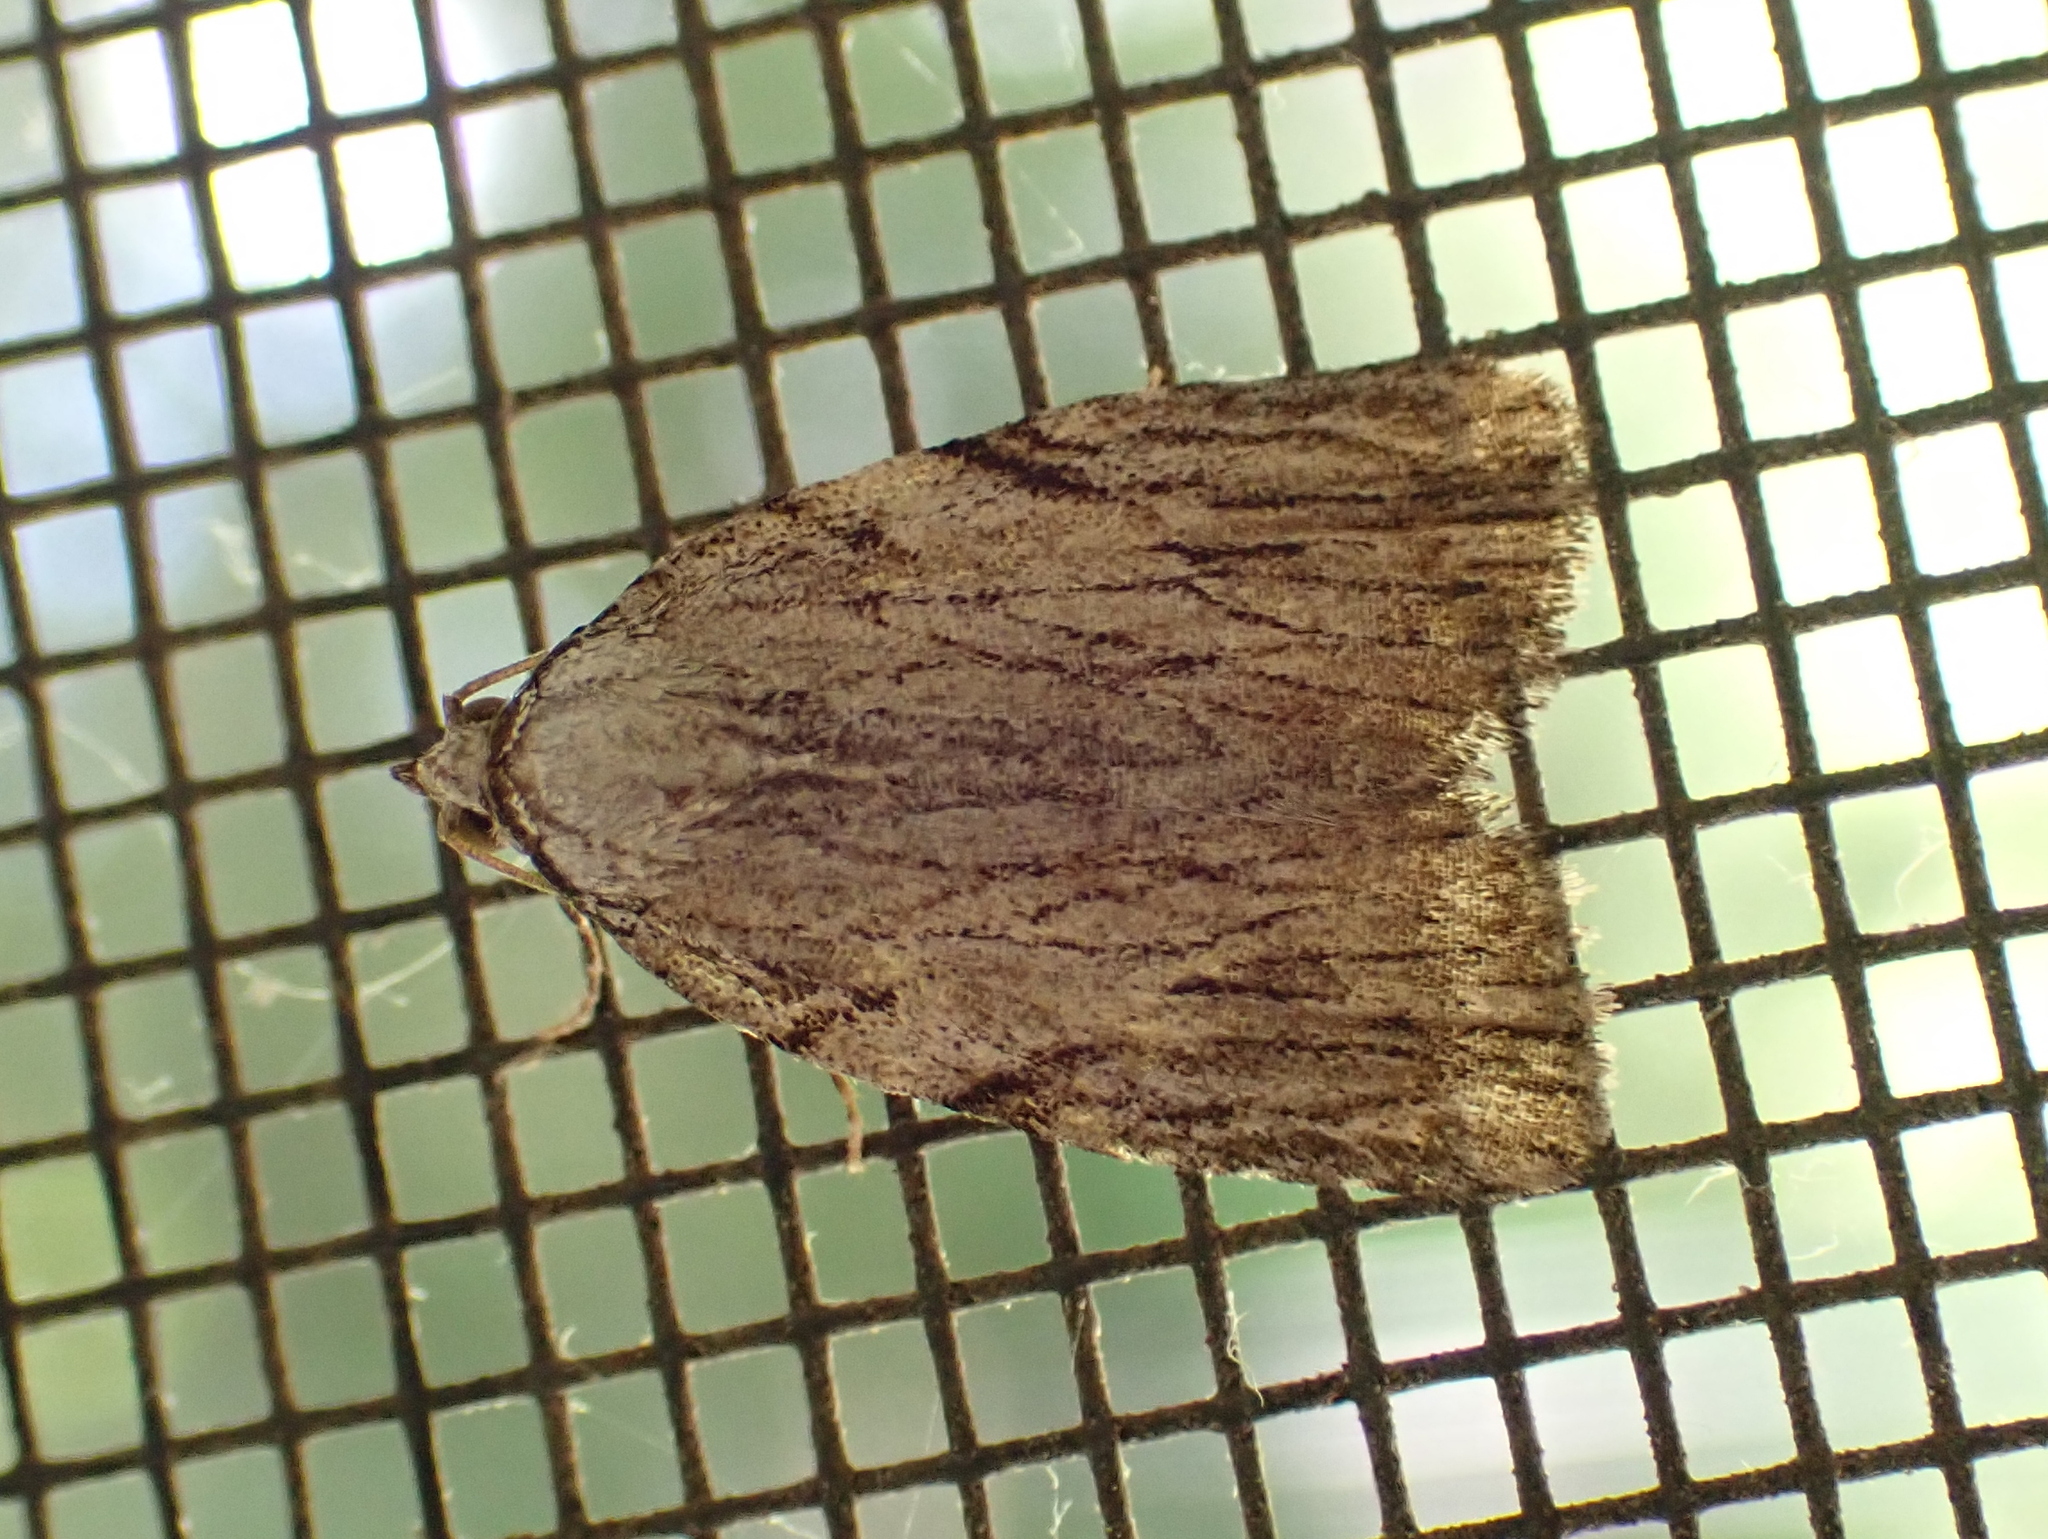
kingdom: Animalia
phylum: Arthropoda
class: Insecta
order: Lepidoptera
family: Noctuidae
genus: Balsa
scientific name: Balsa tristrigella
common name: Three-lined balsa moth
